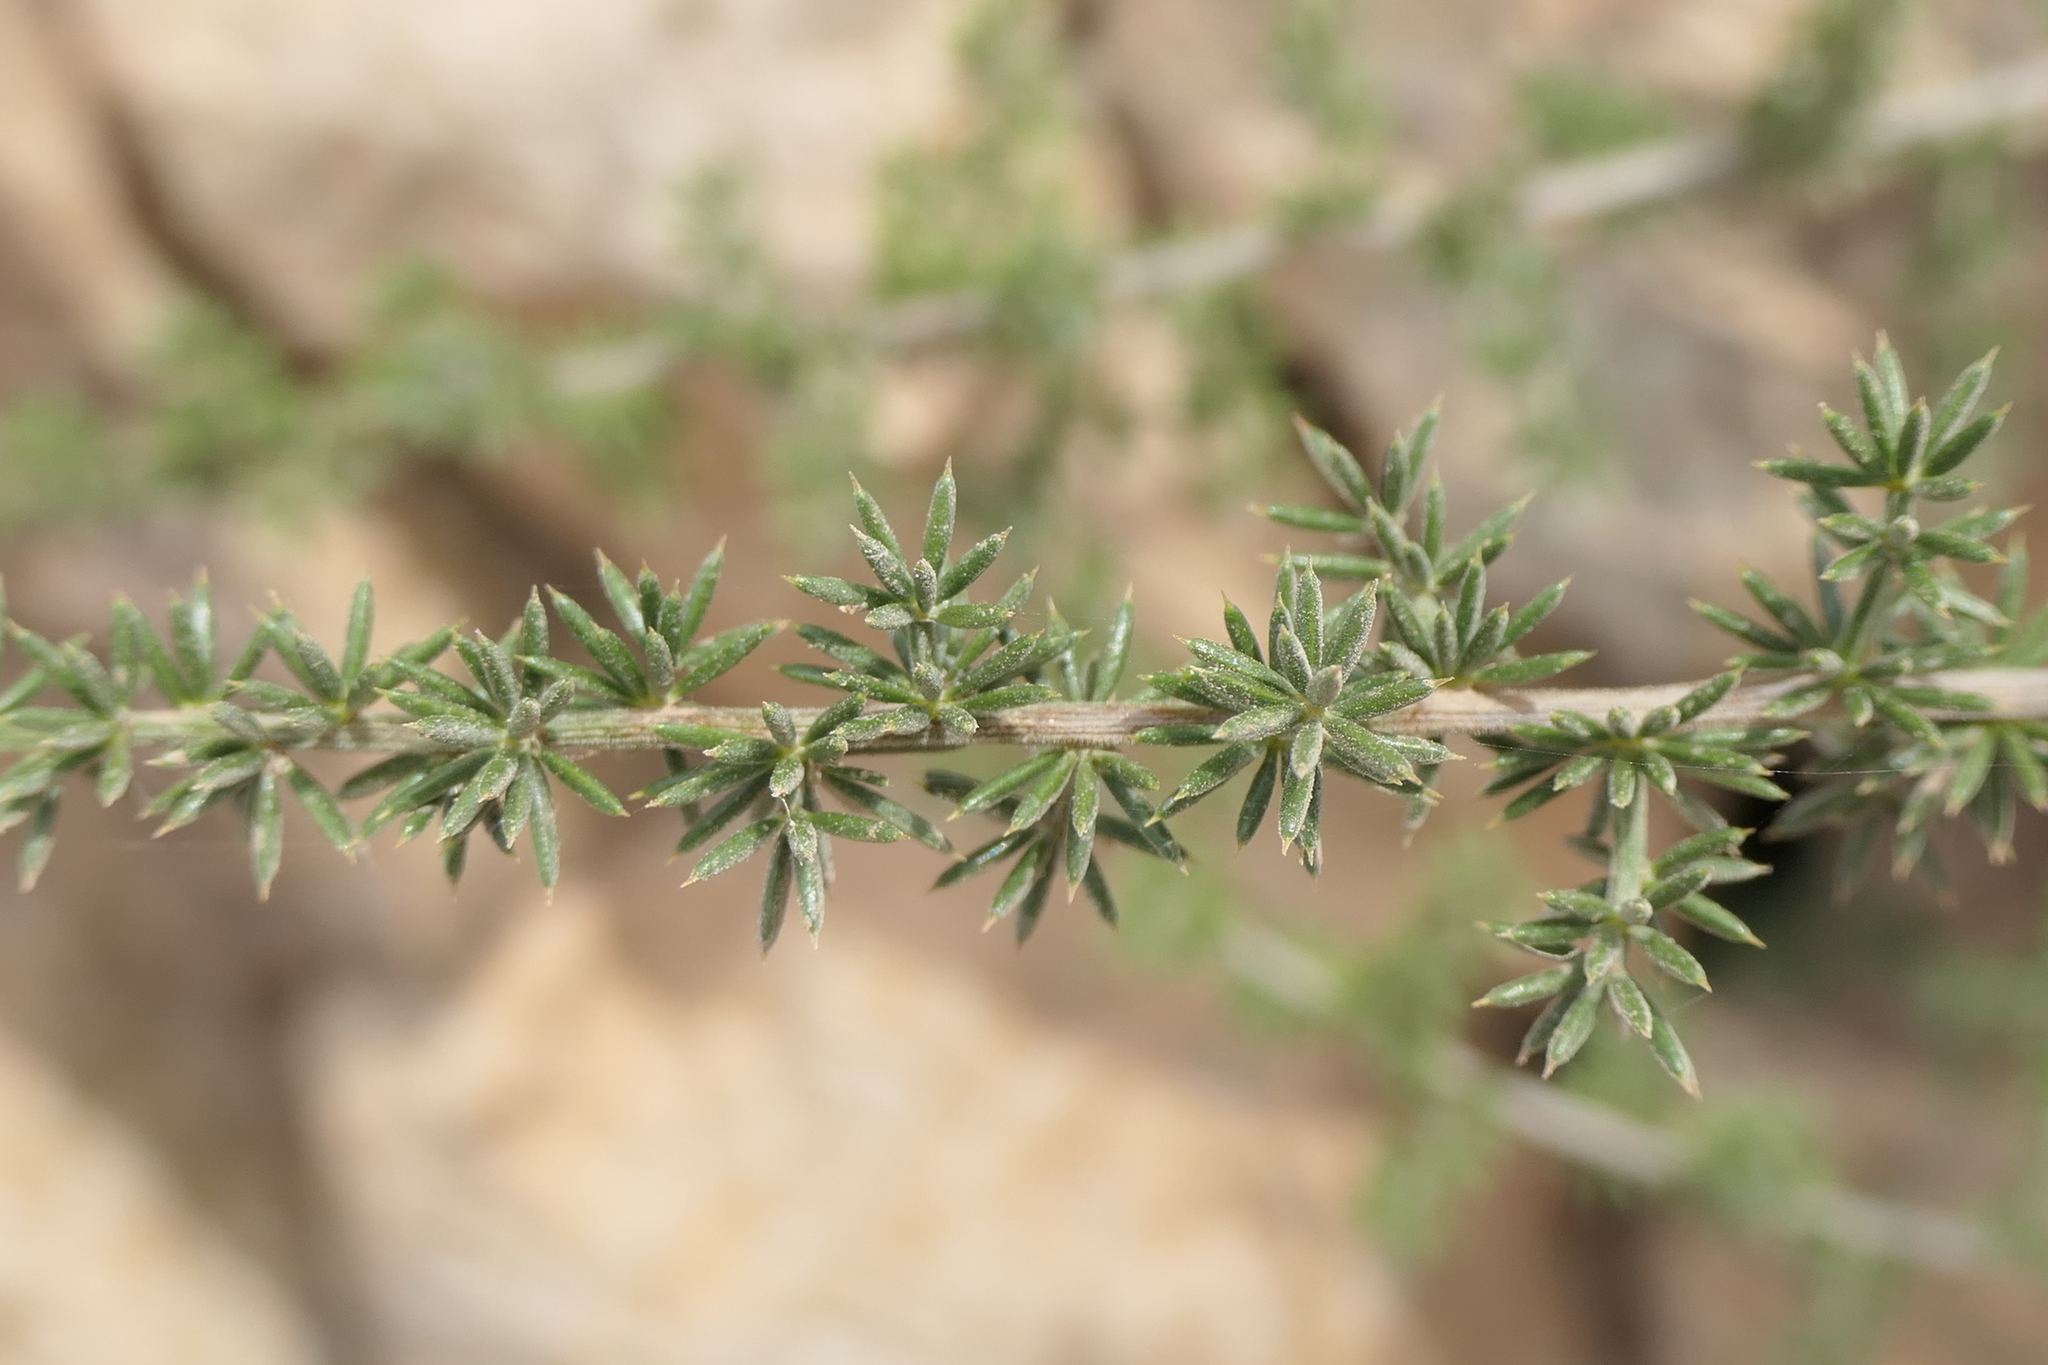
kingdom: Plantae
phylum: Tracheophyta
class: Liliopsida
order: Asparagales
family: Asparagaceae
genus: Asparagus
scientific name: Asparagus acutifolius
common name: Wild asparagus
